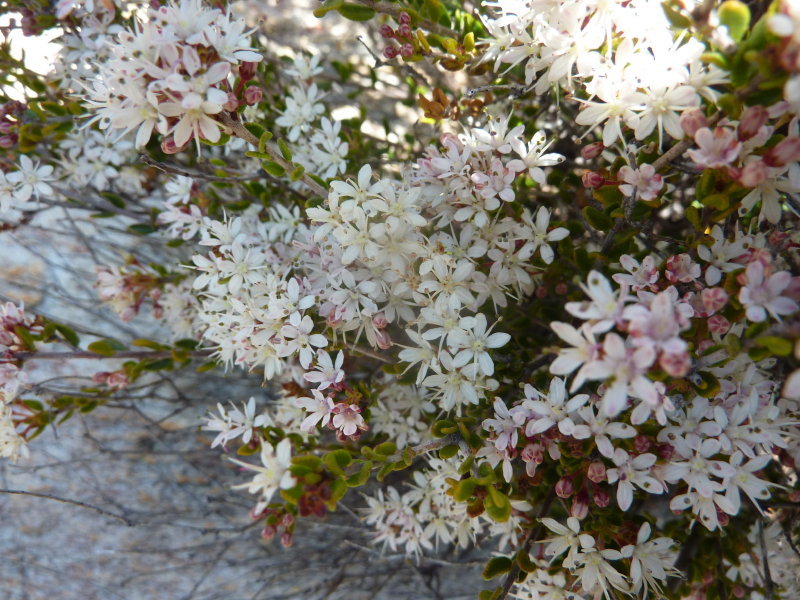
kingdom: Plantae
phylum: Tracheophyta
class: Magnoliopsida
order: Sapindales
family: Rutaceae
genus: Agathosma
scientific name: Agathosma mundtii
